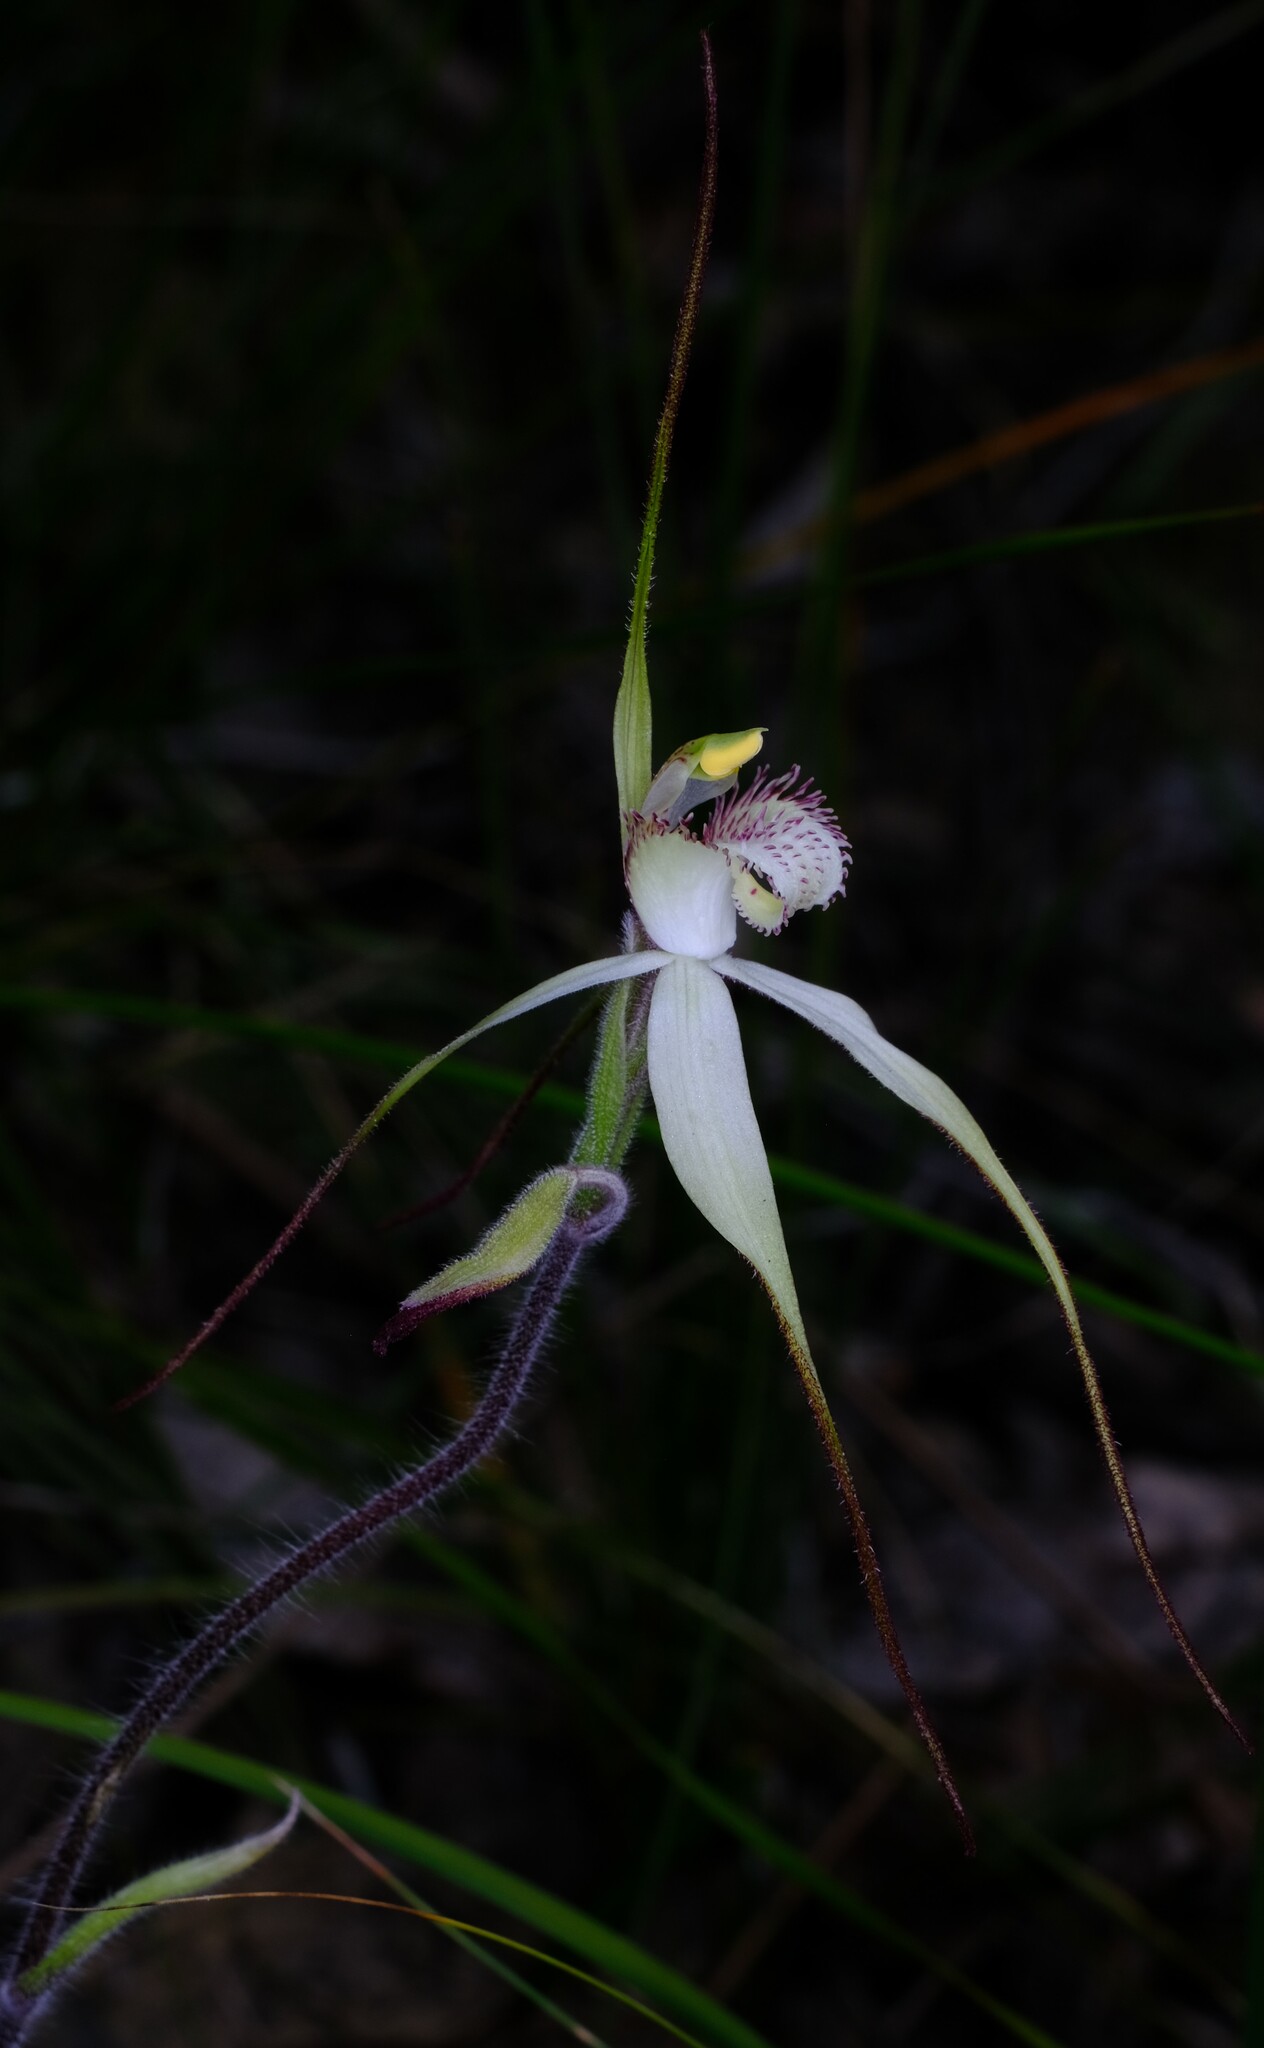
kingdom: Plantae
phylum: Tracheophyta
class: Liliopsida
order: Asparagales
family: Orchidaceae
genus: Caladenia
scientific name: Caladenia venusta
